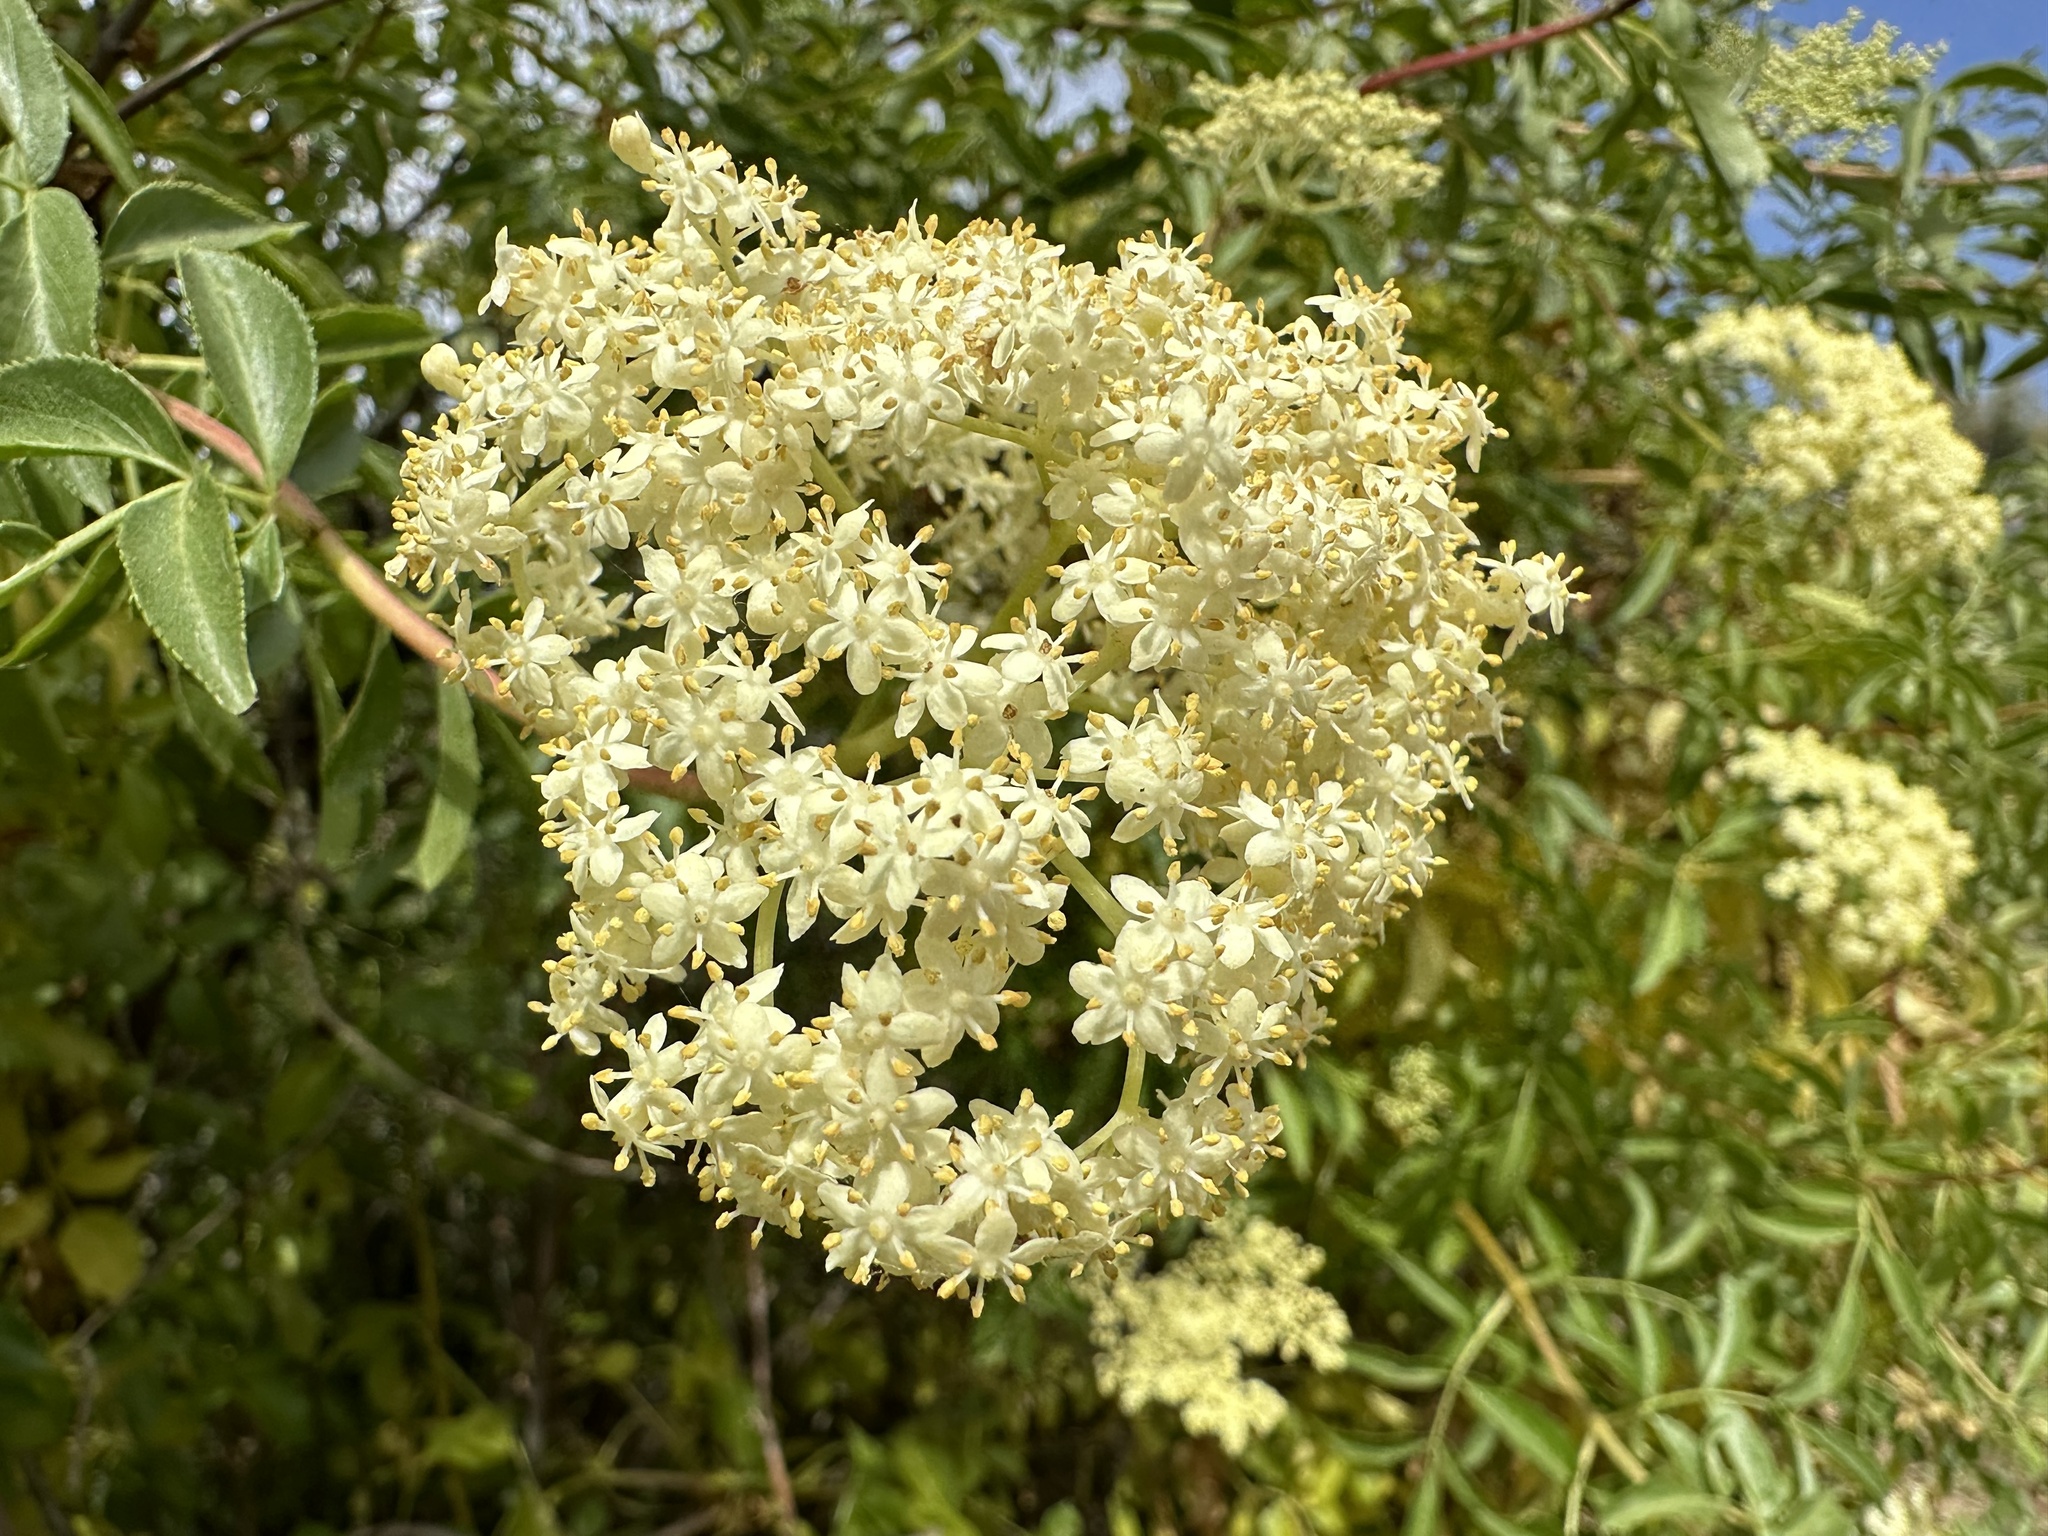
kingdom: Plantae
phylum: Tracheophyta
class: Magnoliopsida
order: Dipsacales
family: Viburnaceae
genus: Sambucus
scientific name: Sambucus cerulea
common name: Blue elder
